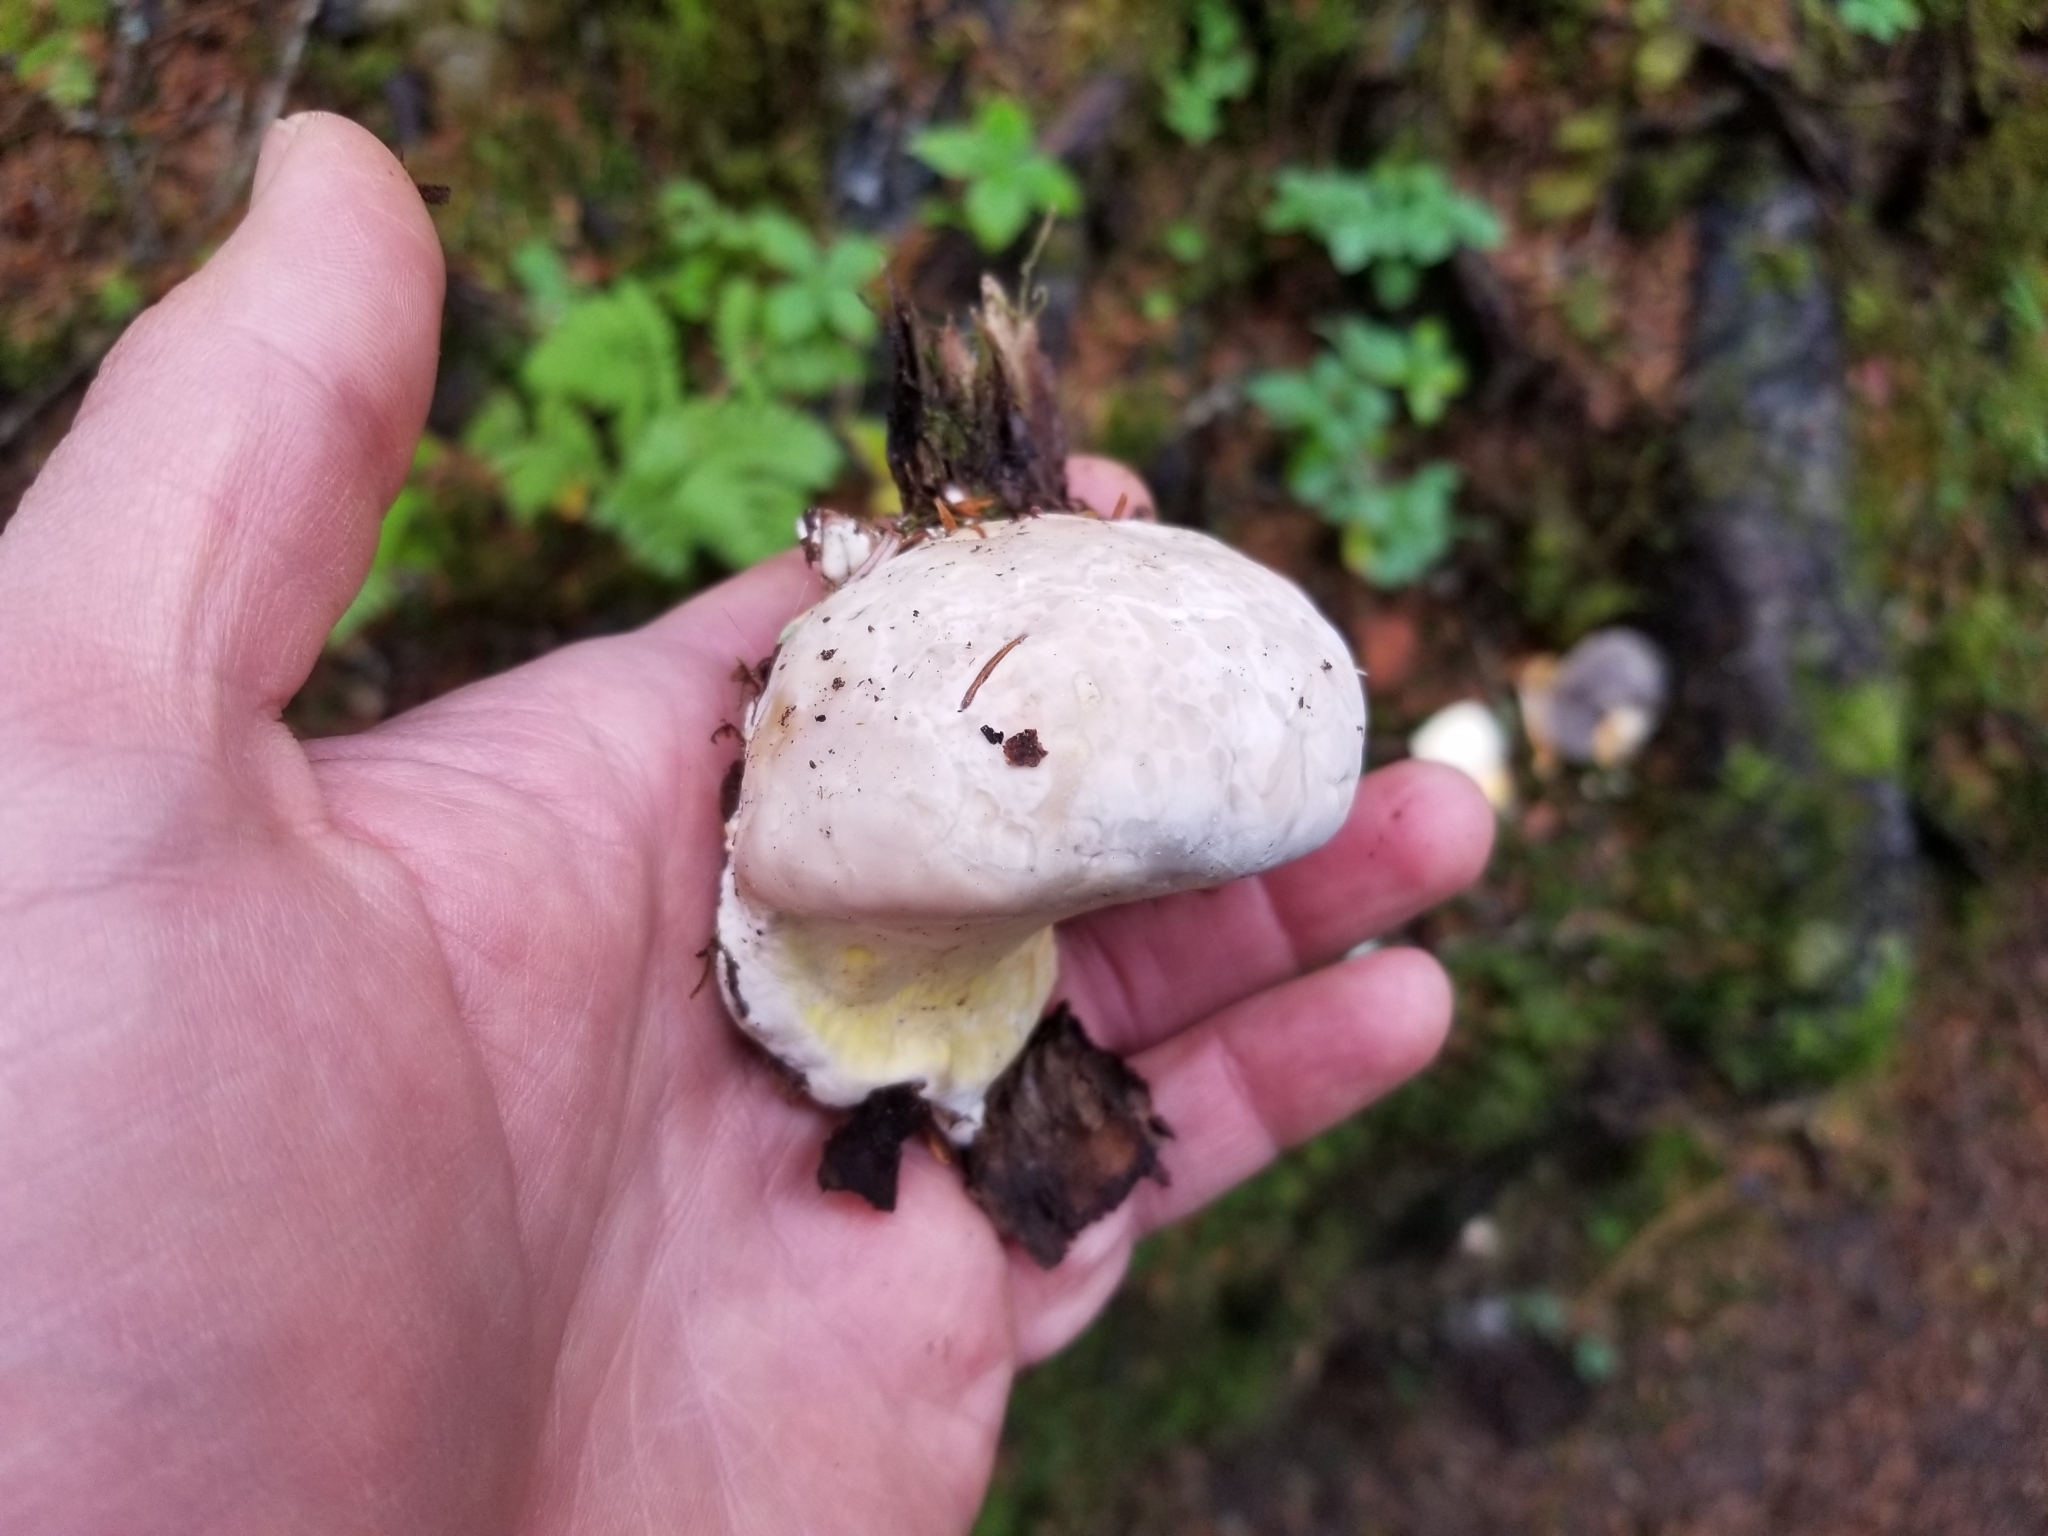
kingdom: Fungi
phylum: Basidiomycota
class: Agaricomycetes
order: Polyporales
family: Fomitopsidaceae
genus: Fomitopsis
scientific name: Fomitopsis
